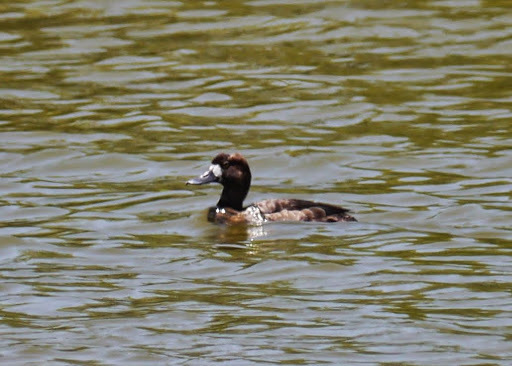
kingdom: Animalia
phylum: Chordata
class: Aves
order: Anseriformes
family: Anatidae
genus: Aythya
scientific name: Aythya affinis
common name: Lesser scaup
